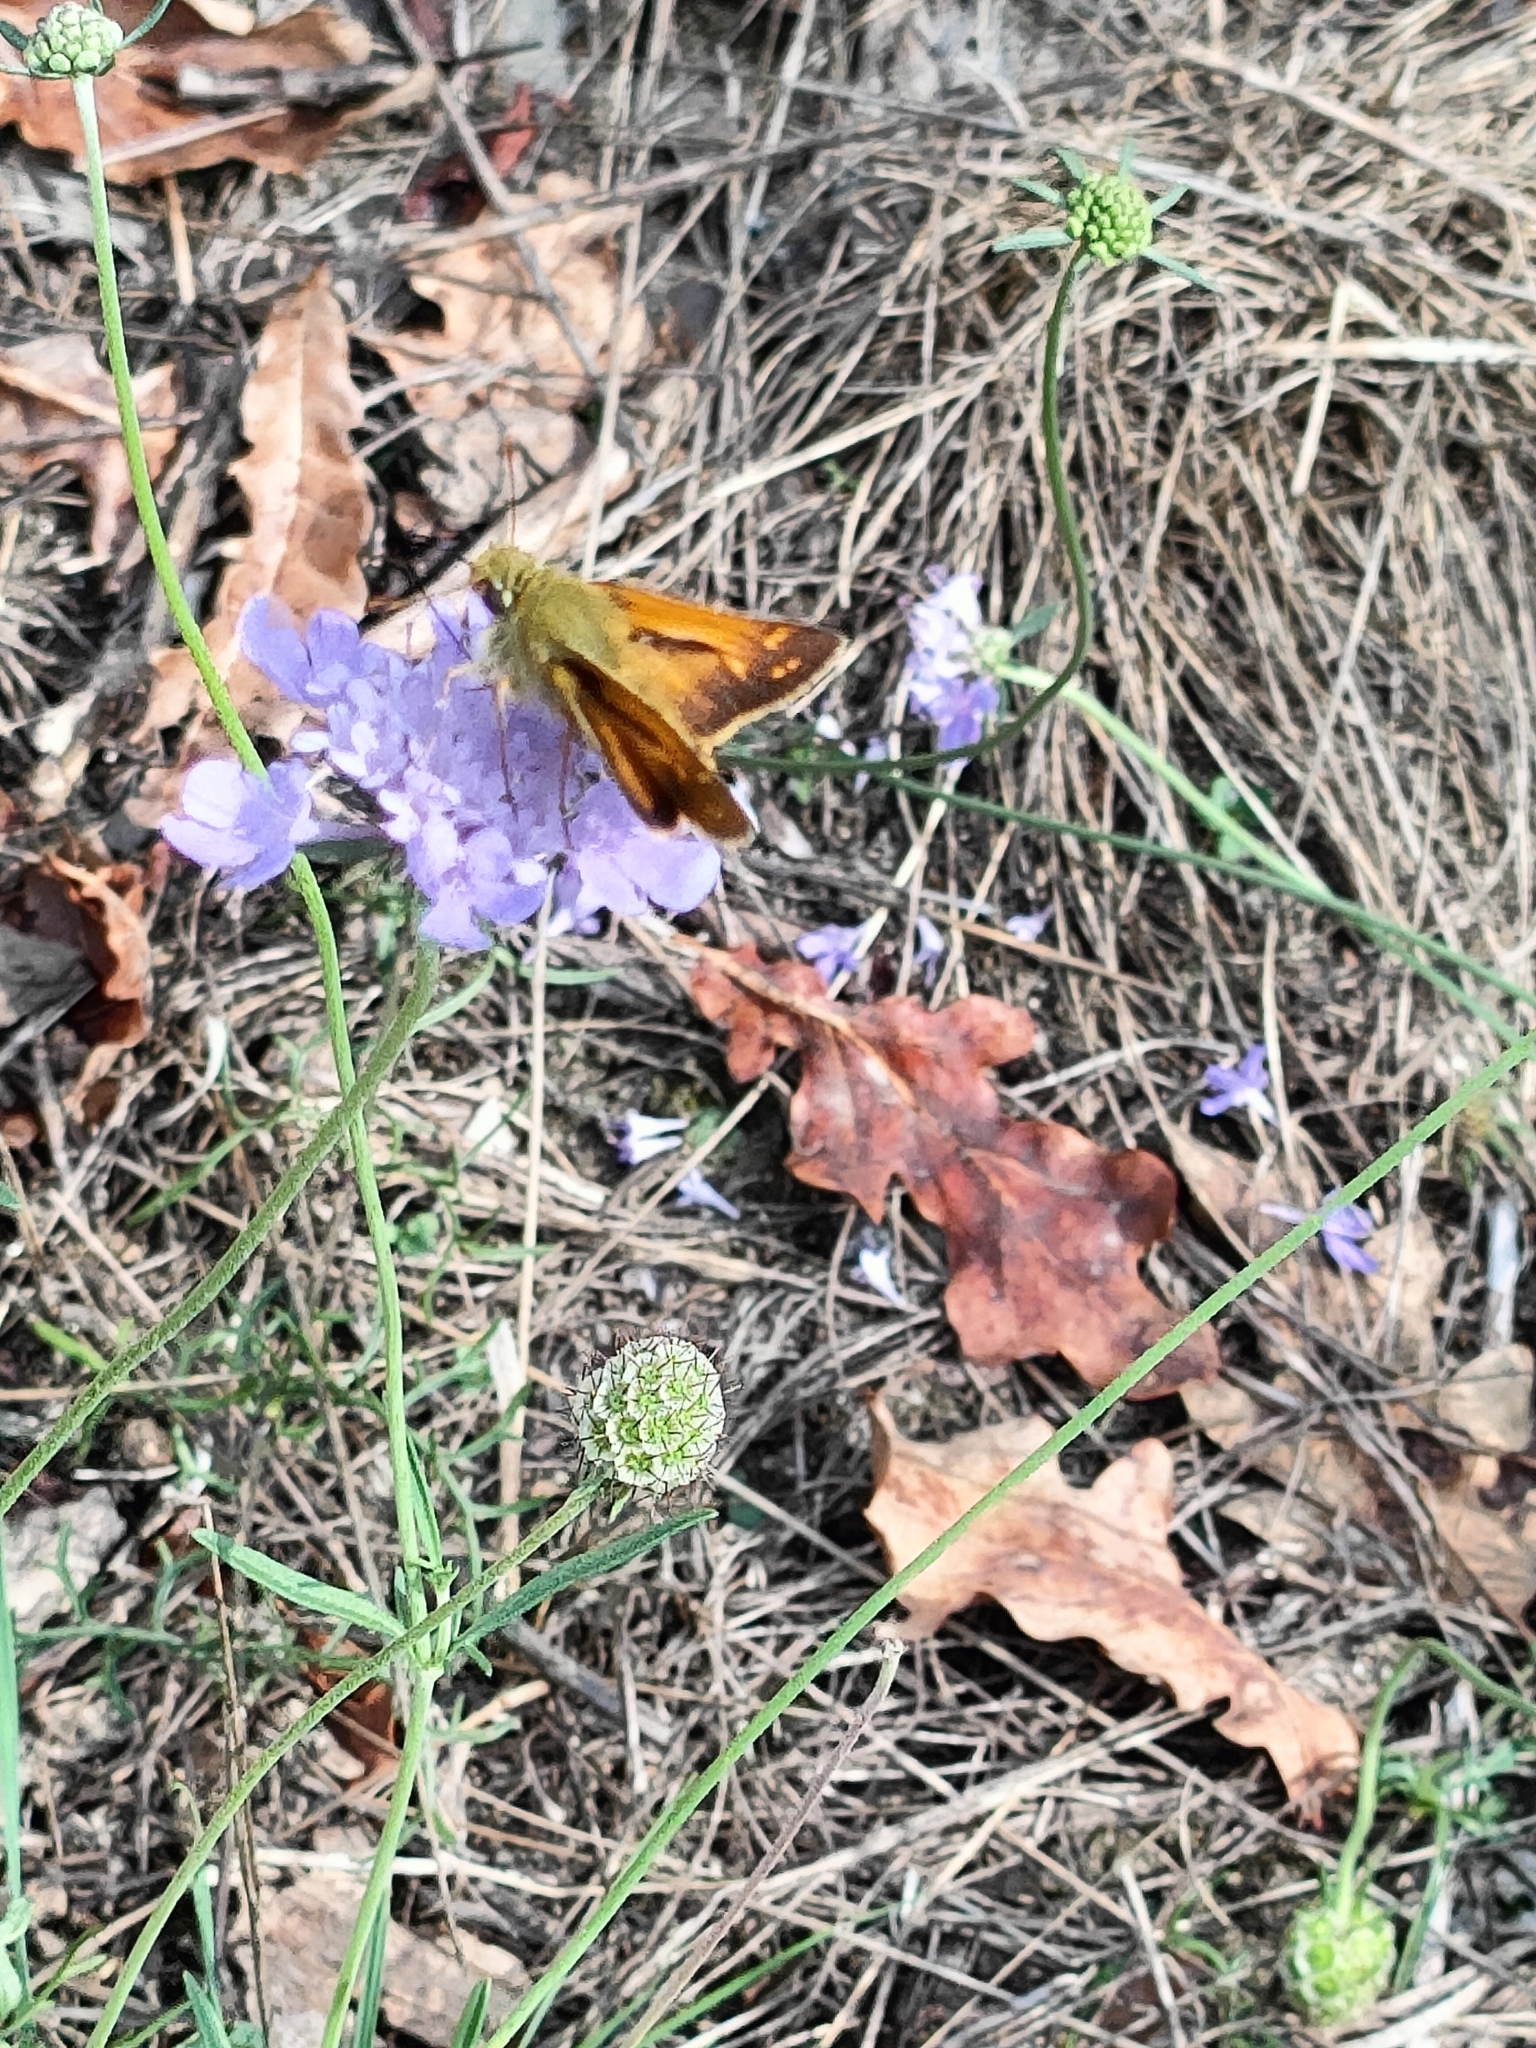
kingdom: Animalia
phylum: Arthropoda
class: Insecta
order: Lepidoptera
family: Hesperiidae
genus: Hesperia
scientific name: Hesperia comma
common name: Common branded skipper
